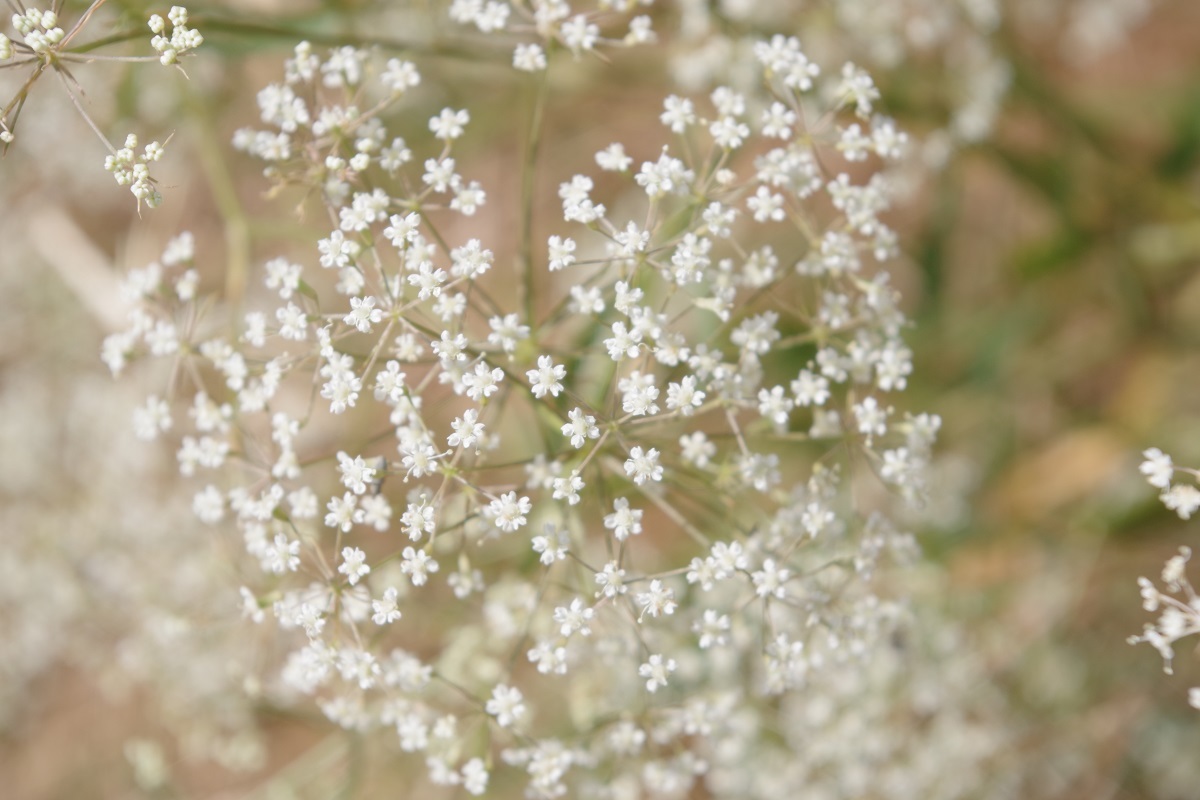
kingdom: Plantae
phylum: Tracheophyta
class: Magnoliopsida
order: Apiales
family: Apiaceae
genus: Falcaria
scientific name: Falcaria vulgaris
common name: Longleaf
